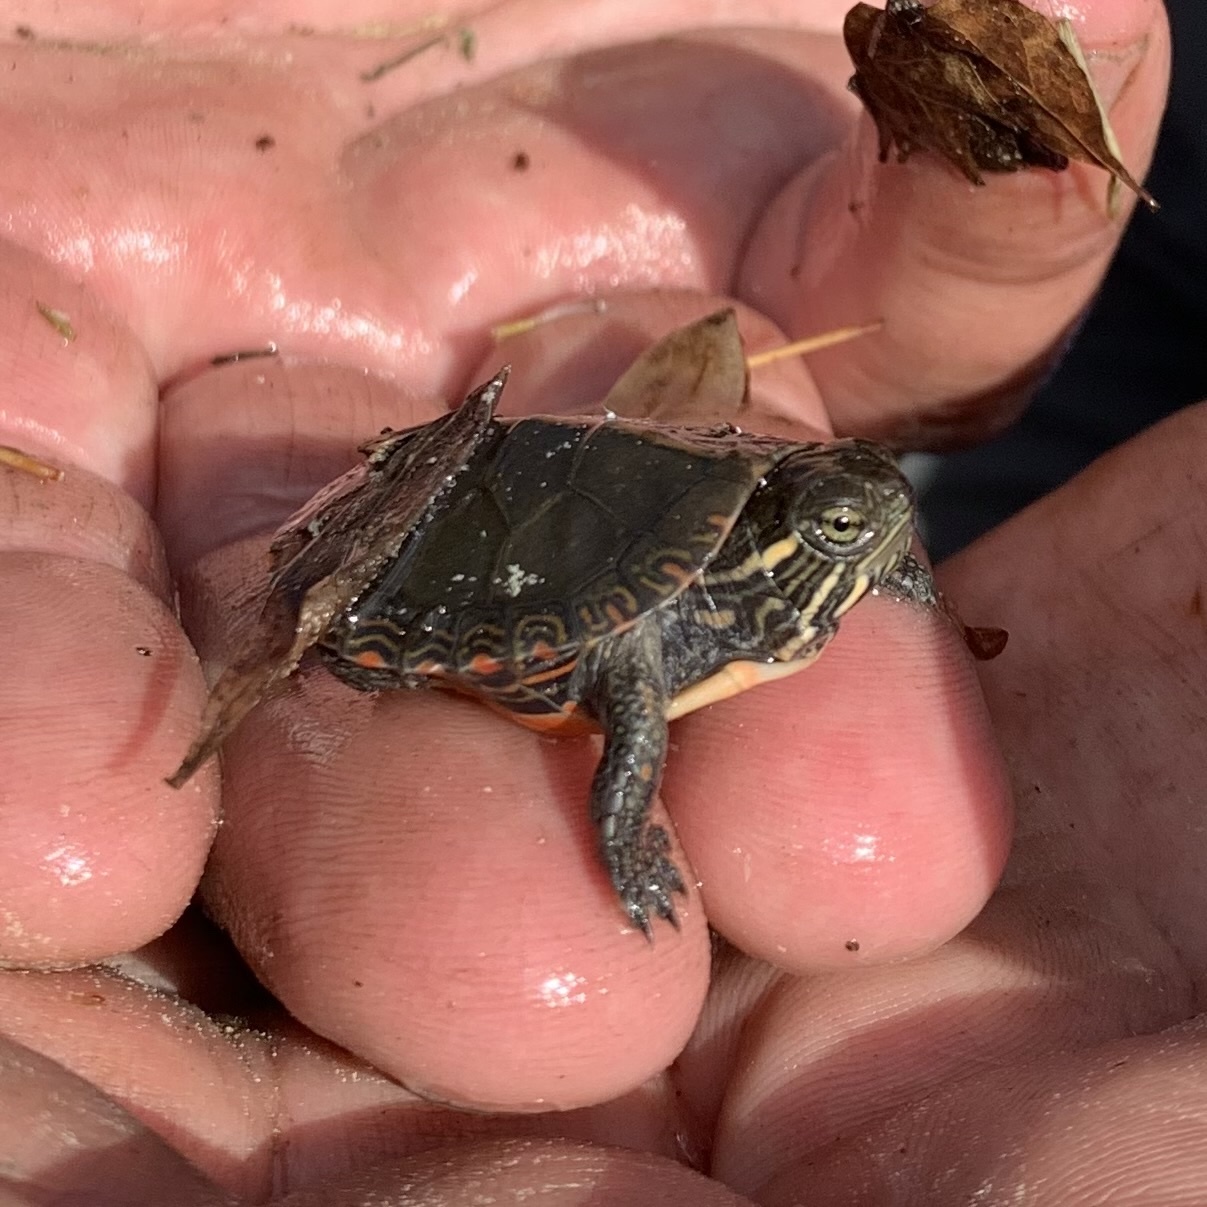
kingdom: Animalia
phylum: Chordata
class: Testudines
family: Emydidae
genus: Chrysemys
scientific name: Chrysemys picta
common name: Painted turtle
